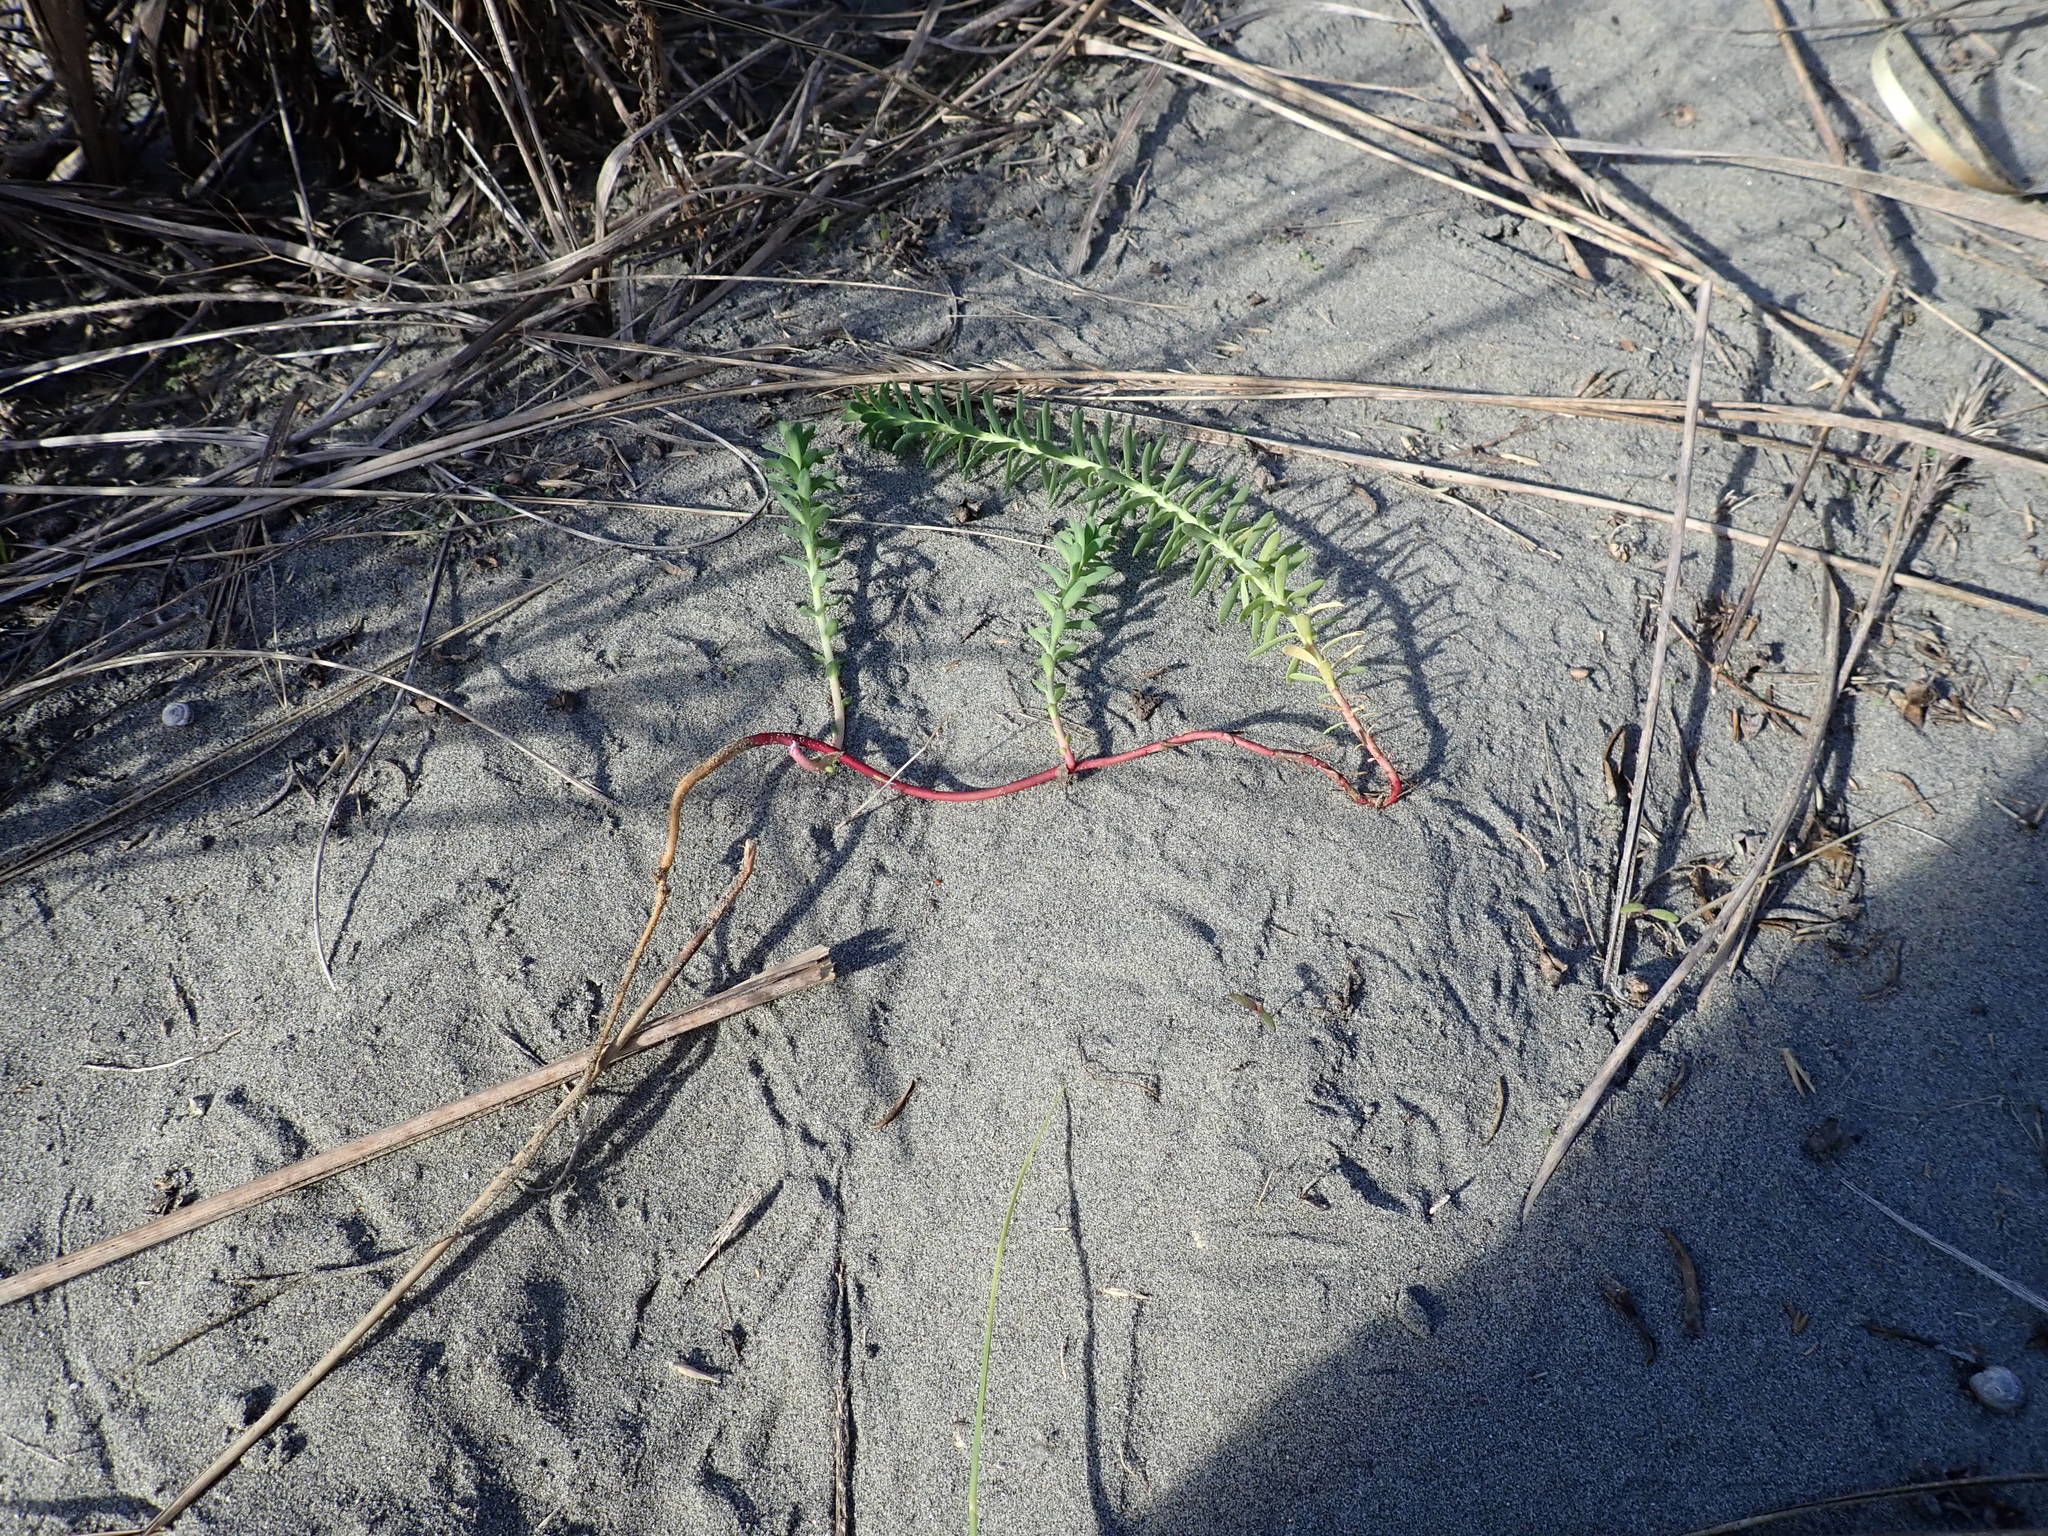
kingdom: Plantae
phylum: Tracheophyta
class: Magnoliopsida
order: Malpighiales
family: Euphorbiaceae
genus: Euphorbia
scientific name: Euphorbia paralias
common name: Sea spurge
